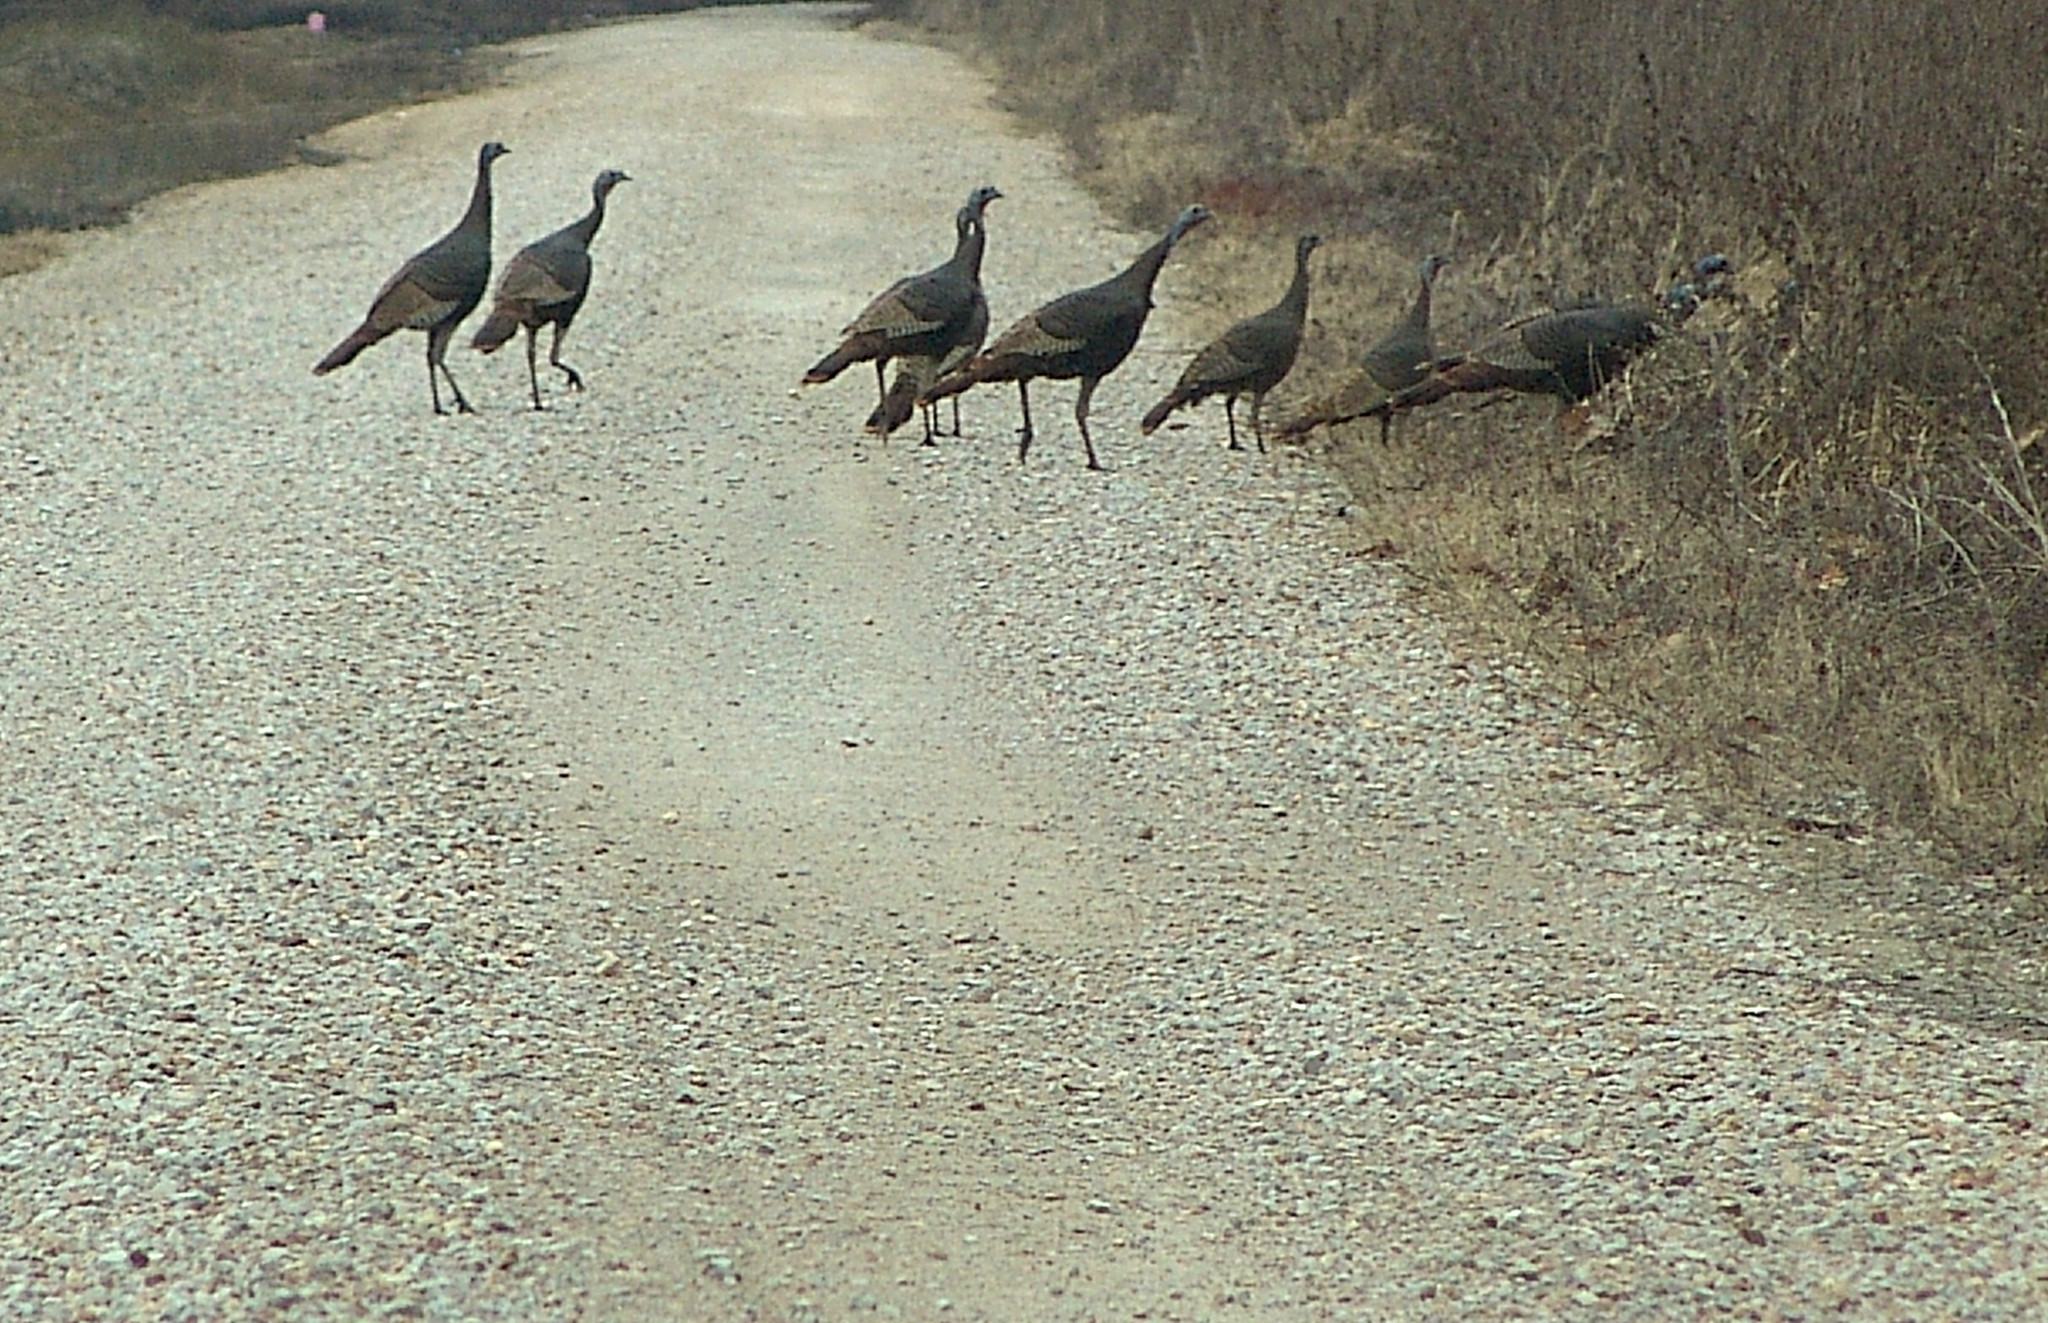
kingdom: Animalia
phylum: Chordata
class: Aves
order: Galliformes
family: Phasianidae
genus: Meleagris
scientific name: Meleagris gallopavo
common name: Wild turkey
